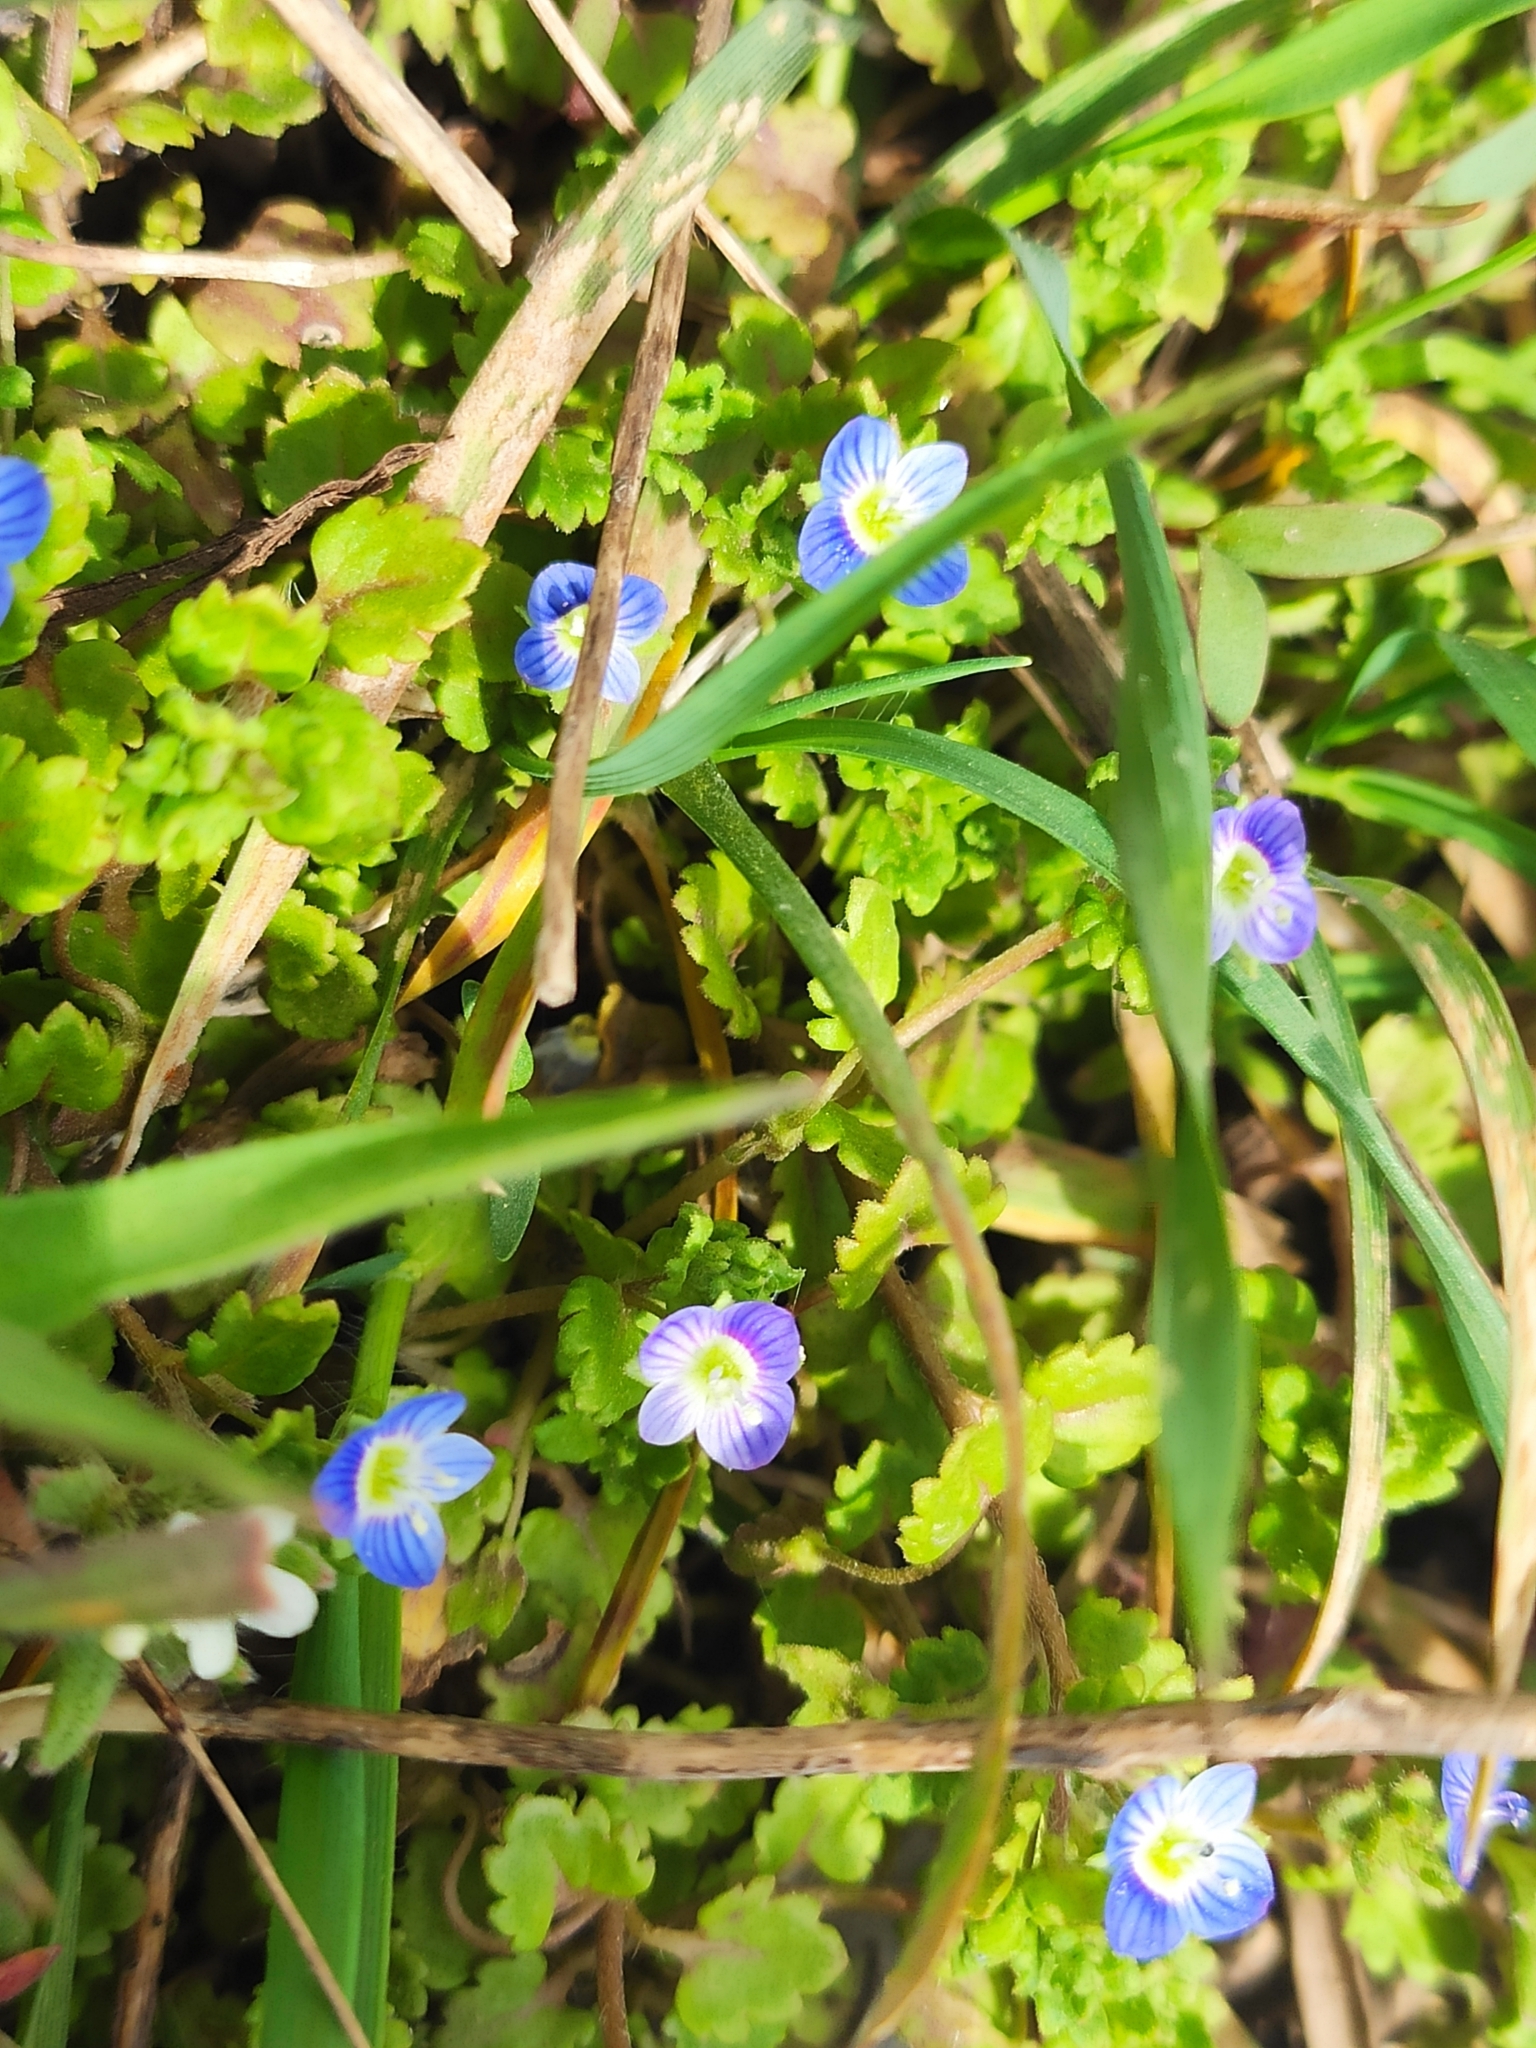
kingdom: Plantae
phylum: Tracheophyta
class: Magnoliopsida
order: Lamiales
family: Plantaginaceae
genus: Veronica
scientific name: Veronica polita
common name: Grey field-speedwell
